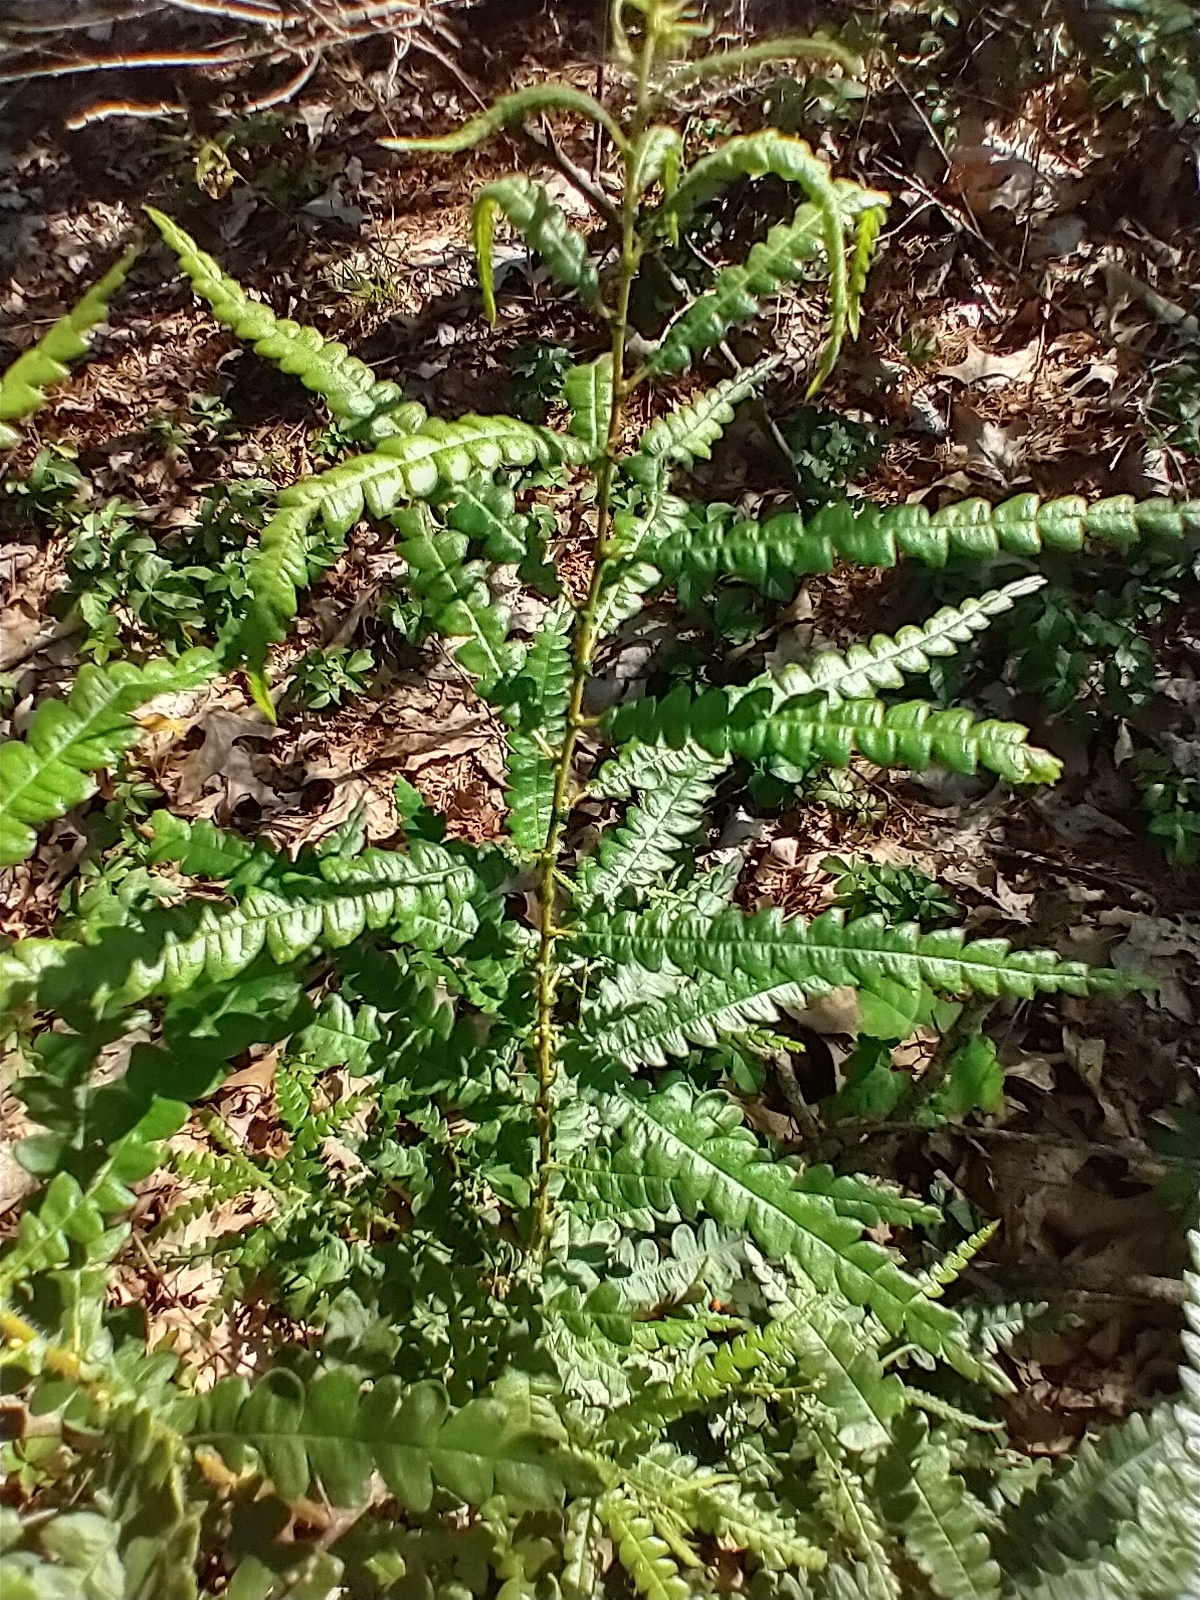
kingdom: Plantae
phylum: Tracheophyta
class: Magnoliopsida
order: Fagales
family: Myricaceae
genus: Comptonia
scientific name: Comptonia peregrina
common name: Sweet-fern
